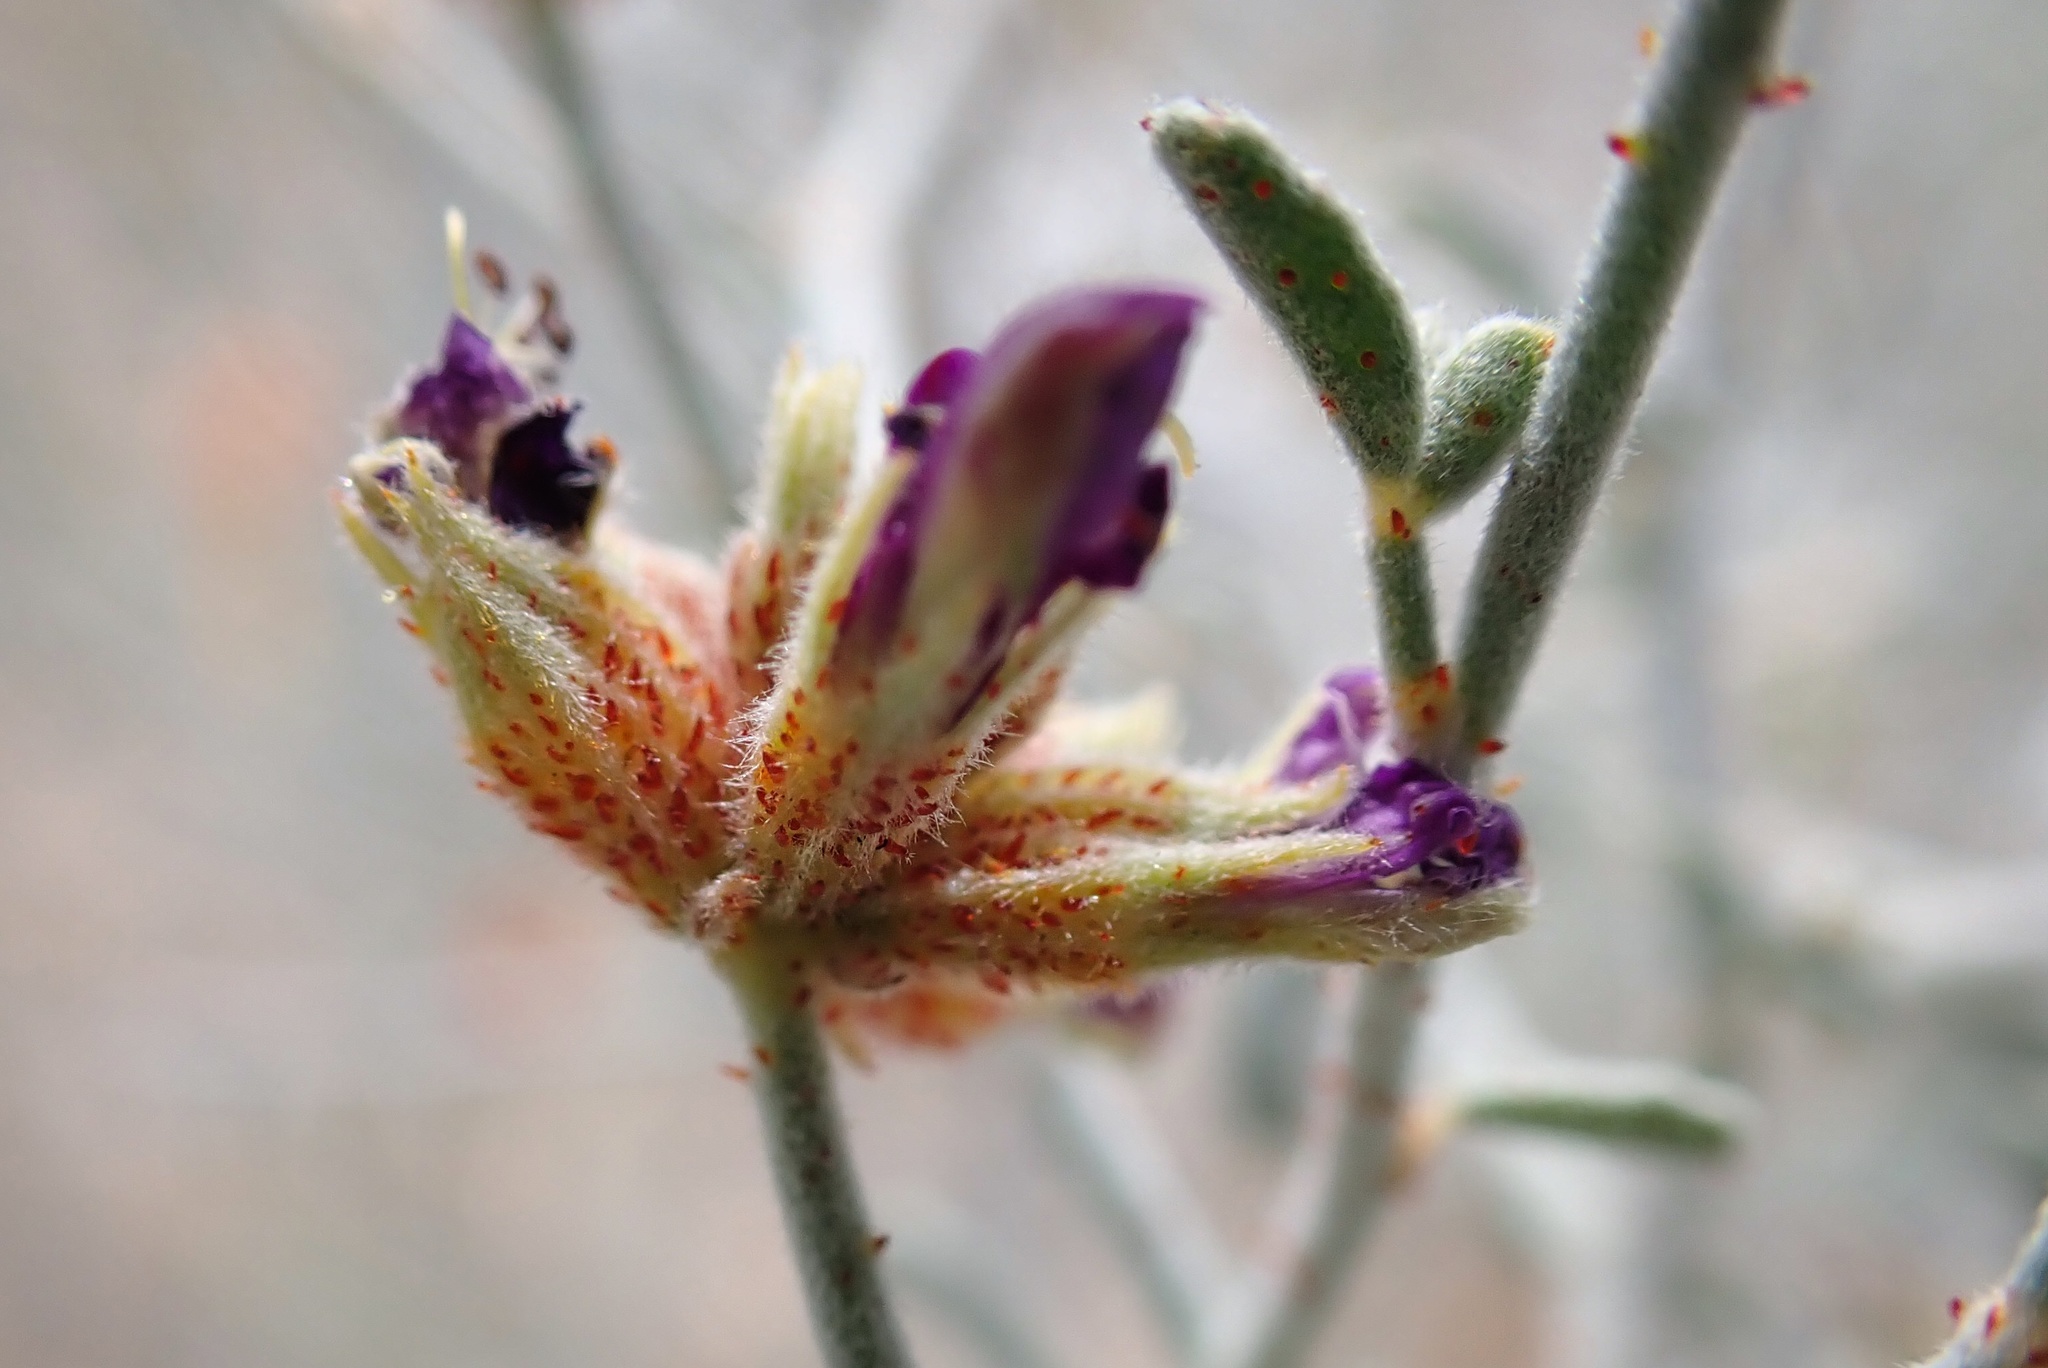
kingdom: Plantae
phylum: Tracheophyta
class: Magnoliopsida
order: Fabales
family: Fabaceae
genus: Psorothamnus
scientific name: Psorothamnus emoryi
